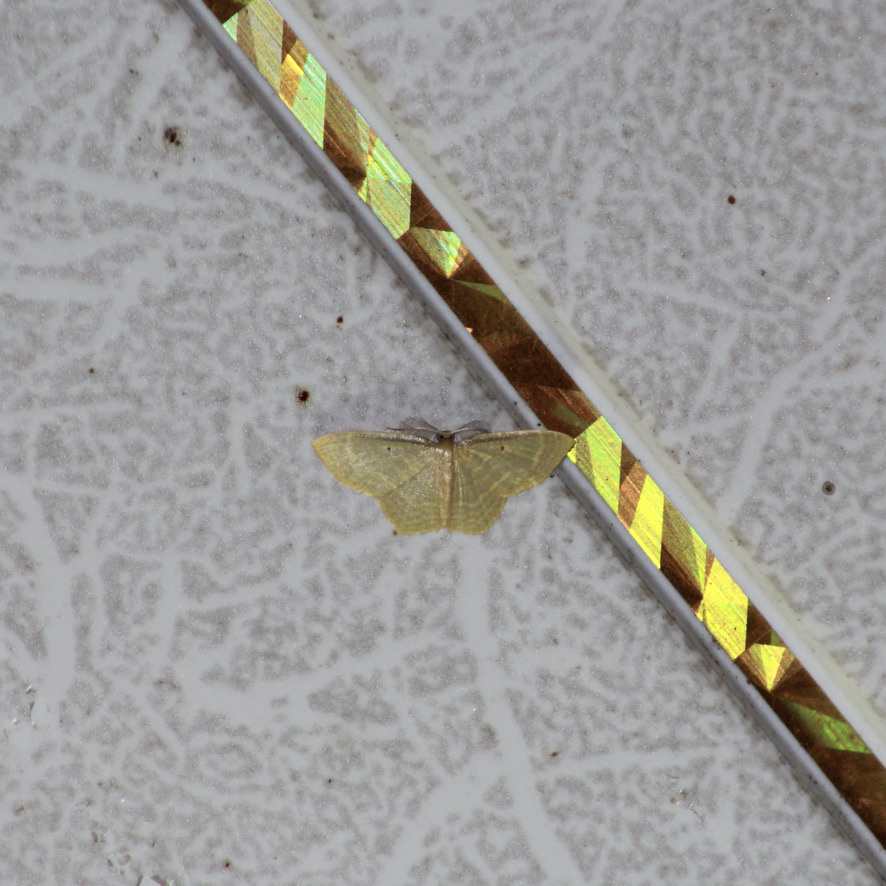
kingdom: Animalia
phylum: Arthropoda
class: Insecta
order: Lepidoptera
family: Geometridae
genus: Eois
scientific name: Eois marcearia
